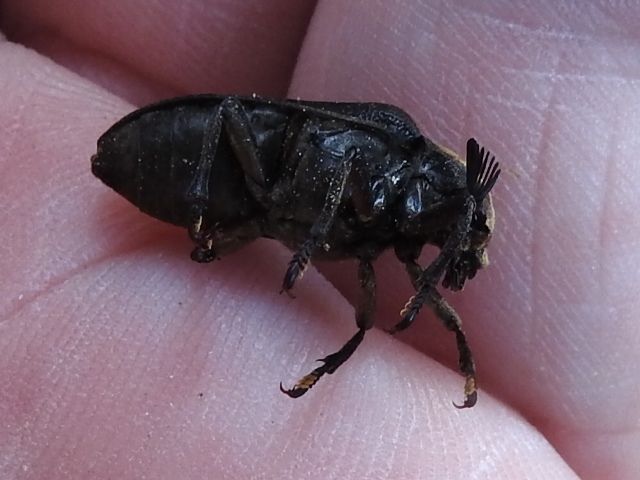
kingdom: Animalia
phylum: Arthropoda
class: Insecta
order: Coleoptera
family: Rhipiceridae
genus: Sandalus
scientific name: Sandalus niger
